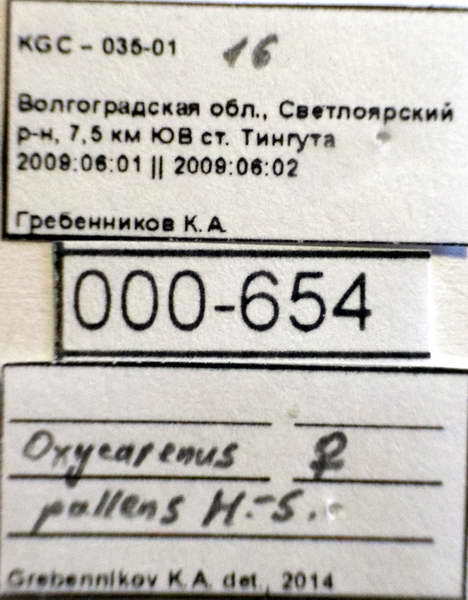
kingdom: Animalia
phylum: Arthropoda
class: Insecta
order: Hemiptera
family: Oxycarenidae
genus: Oxycarenus
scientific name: Oxycarenus pallens
